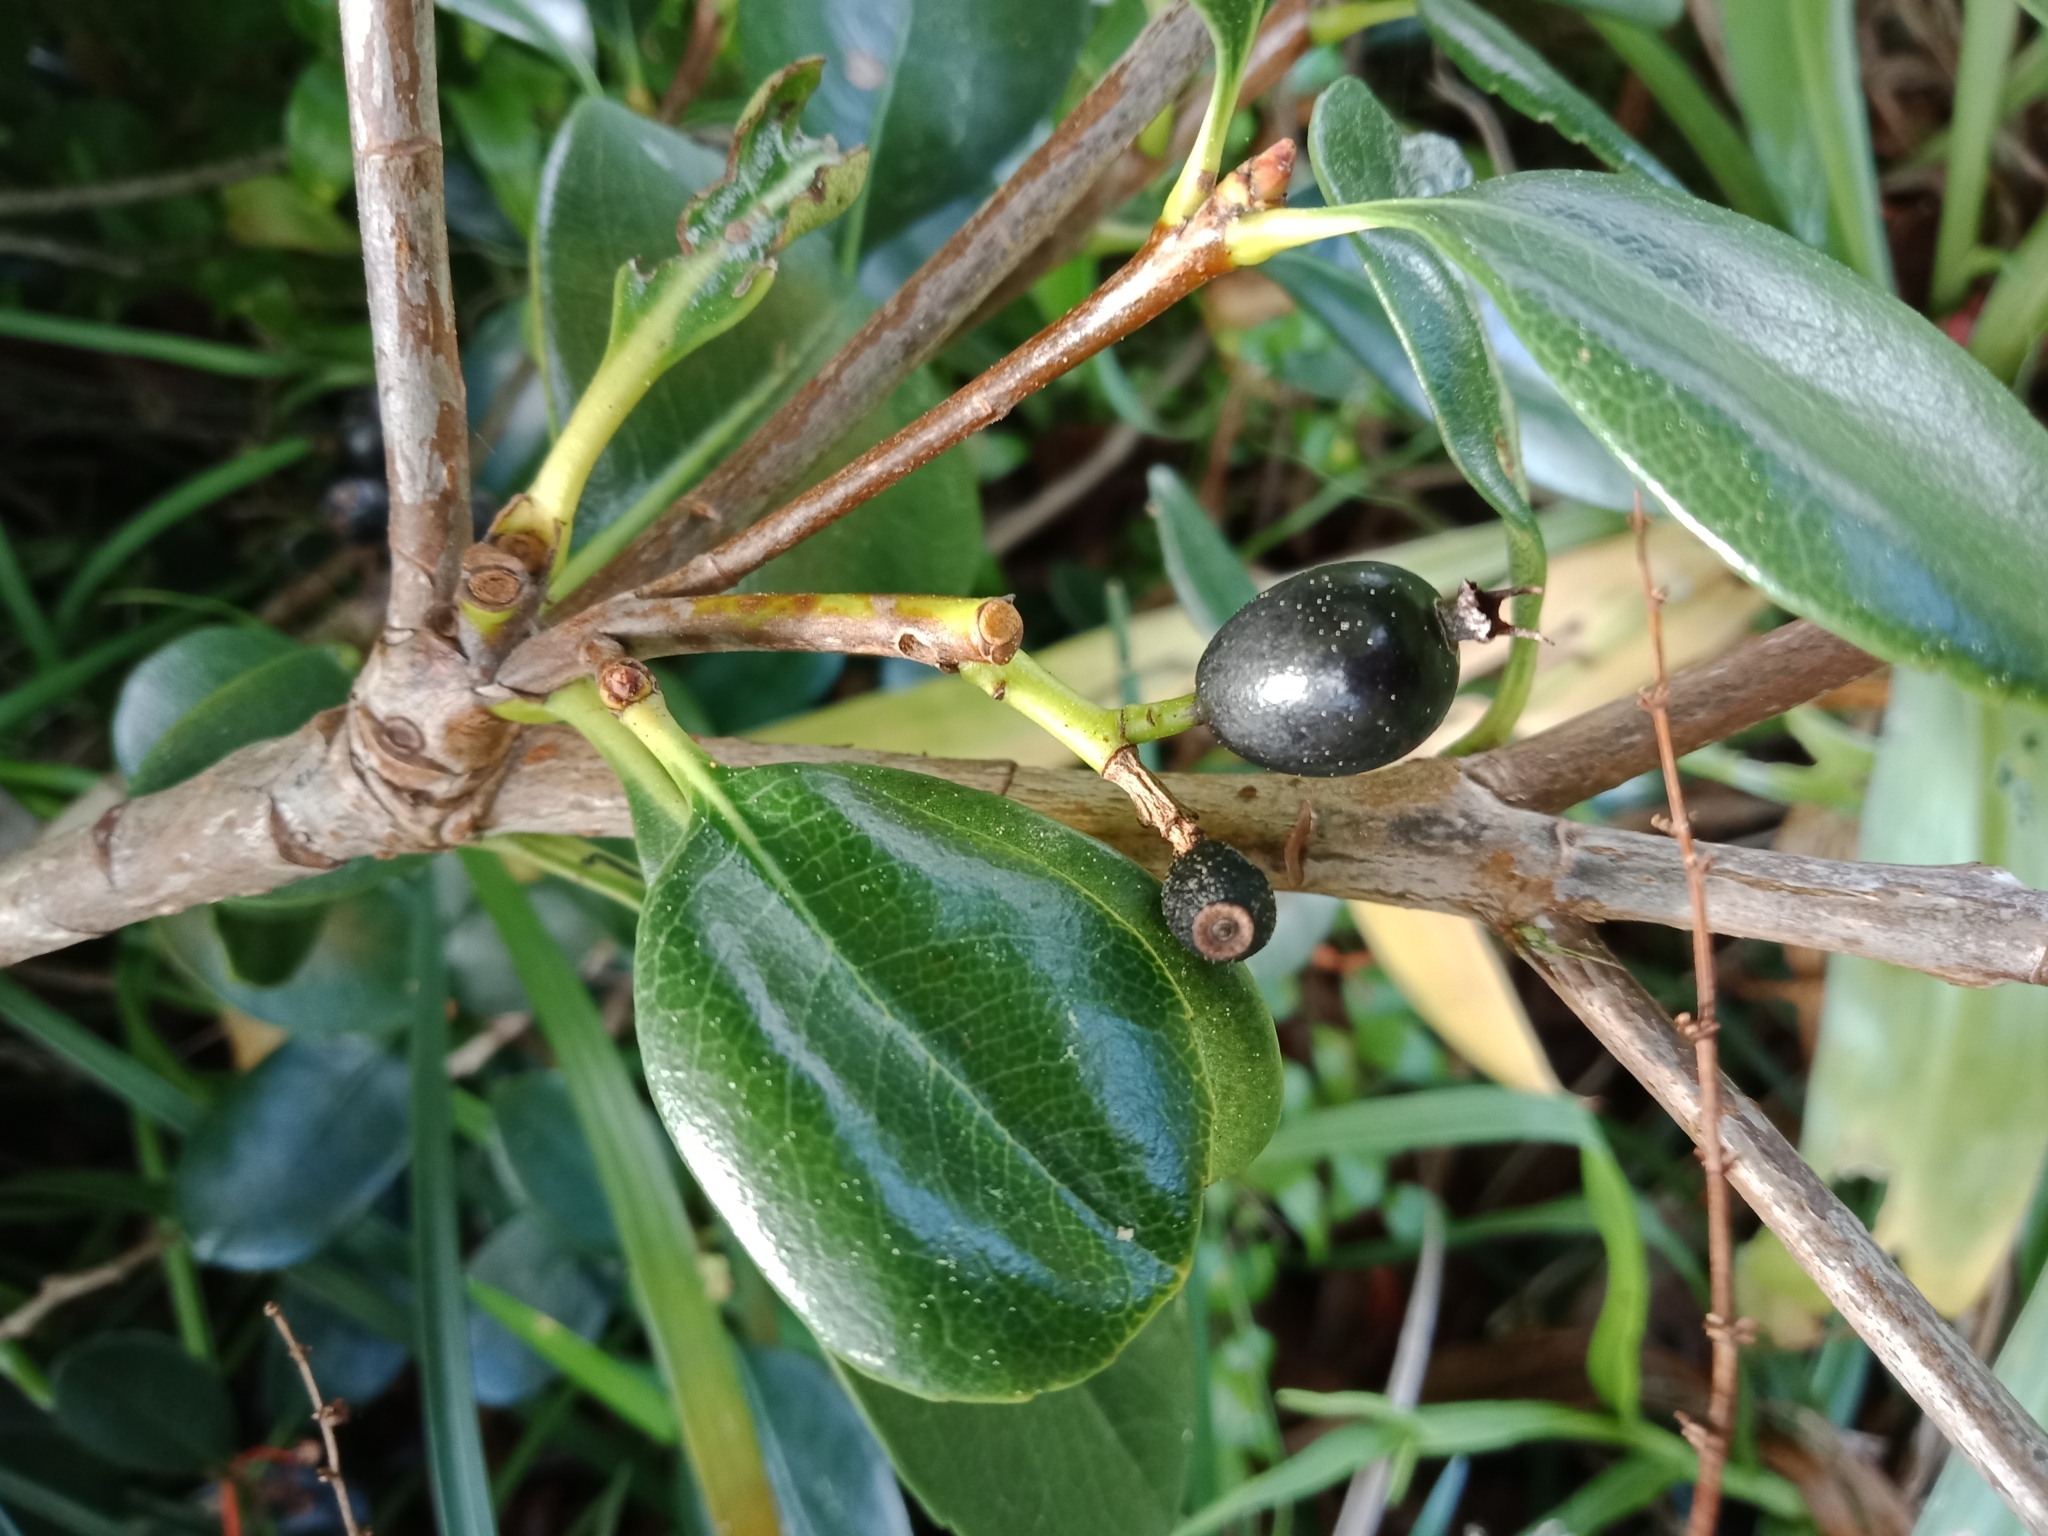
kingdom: Plantae
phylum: Tracheophyta
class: Magnoliopsida
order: Rosales
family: Rosaceae
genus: Rhaphiolepis
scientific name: Rhaphiolepis indica
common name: India-hawthorn
